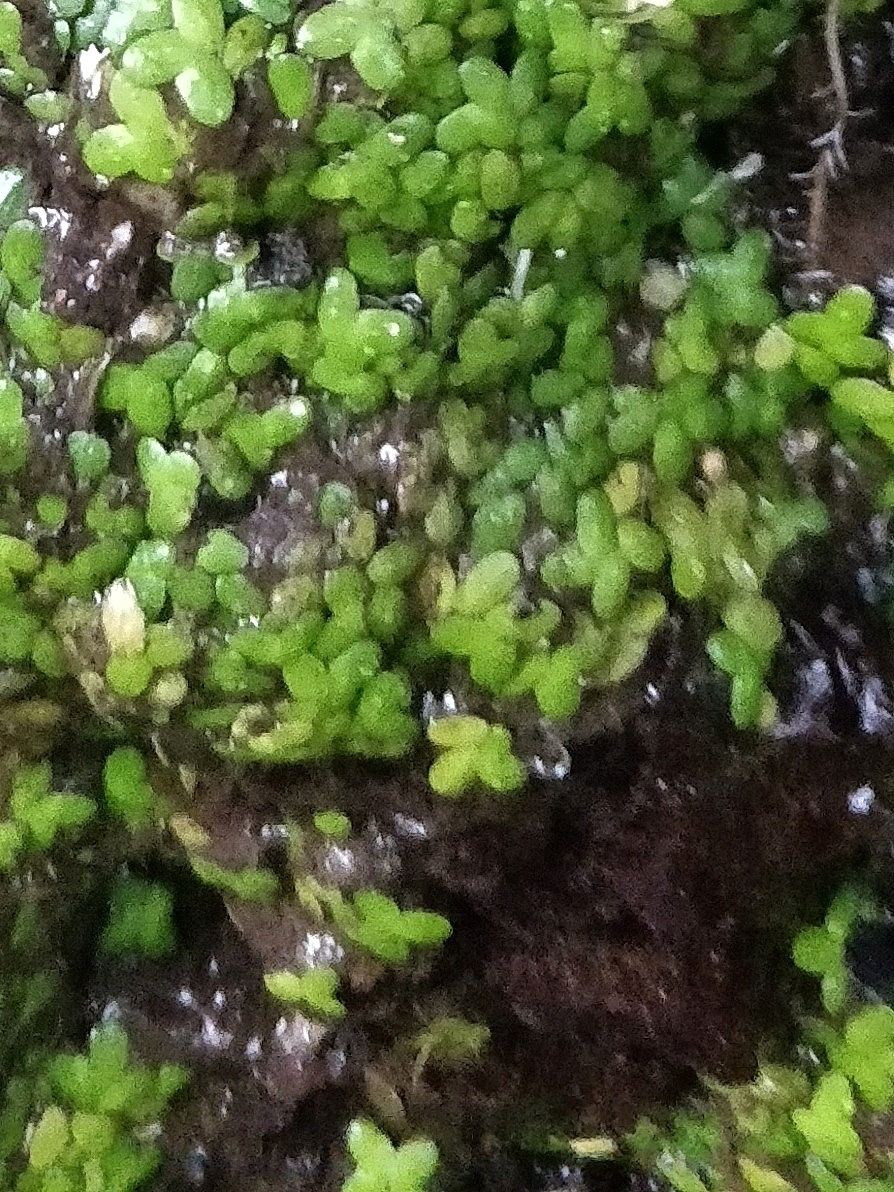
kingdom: Plantae
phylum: Tracheophyta
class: Liliopsida
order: Alismatales
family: Araceae
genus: Lemna
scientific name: Lemna minor
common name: Common duckweed
